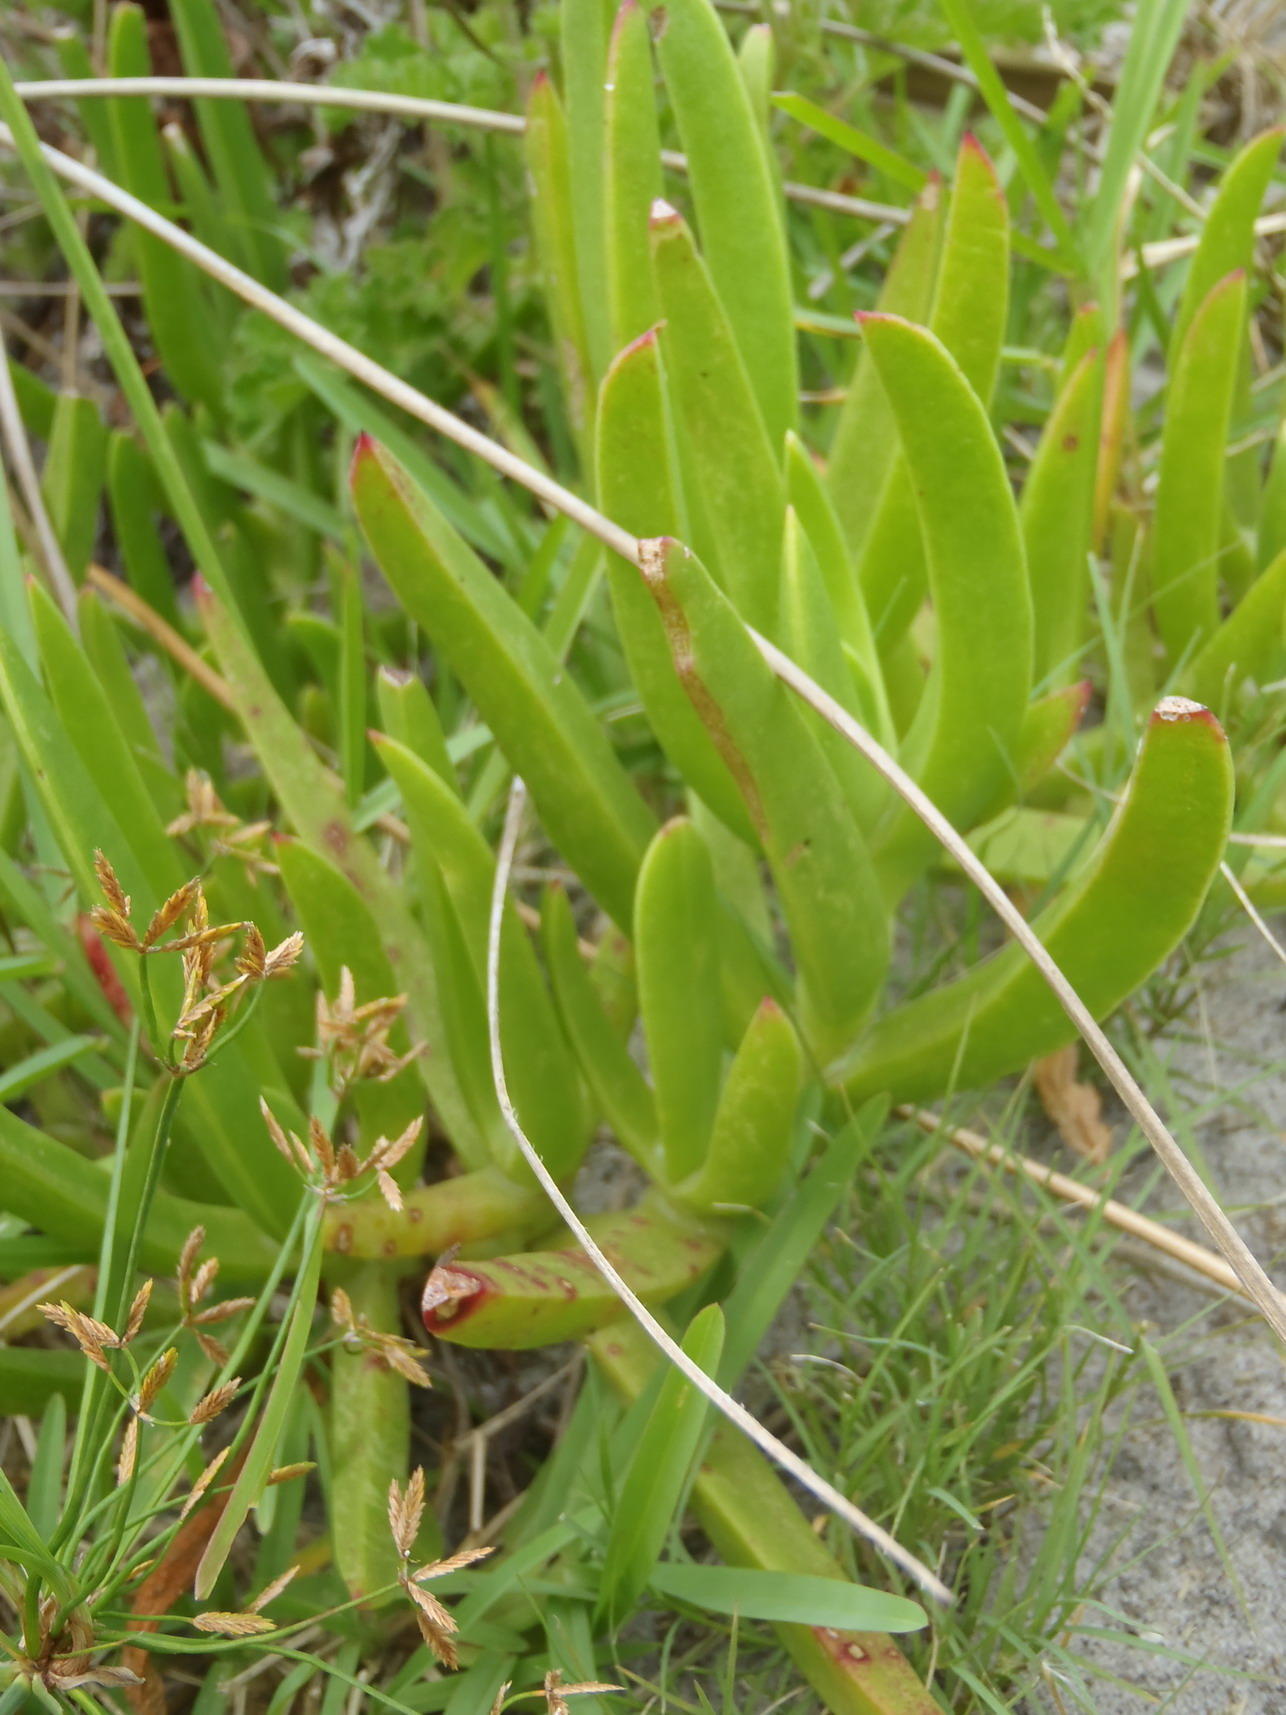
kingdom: Plantae
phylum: Tracheophyta
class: Magnoliopsida
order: Caryophyllales
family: Aizoaceae
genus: Carpobrotus
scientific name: Carpobrotus deliciosus
